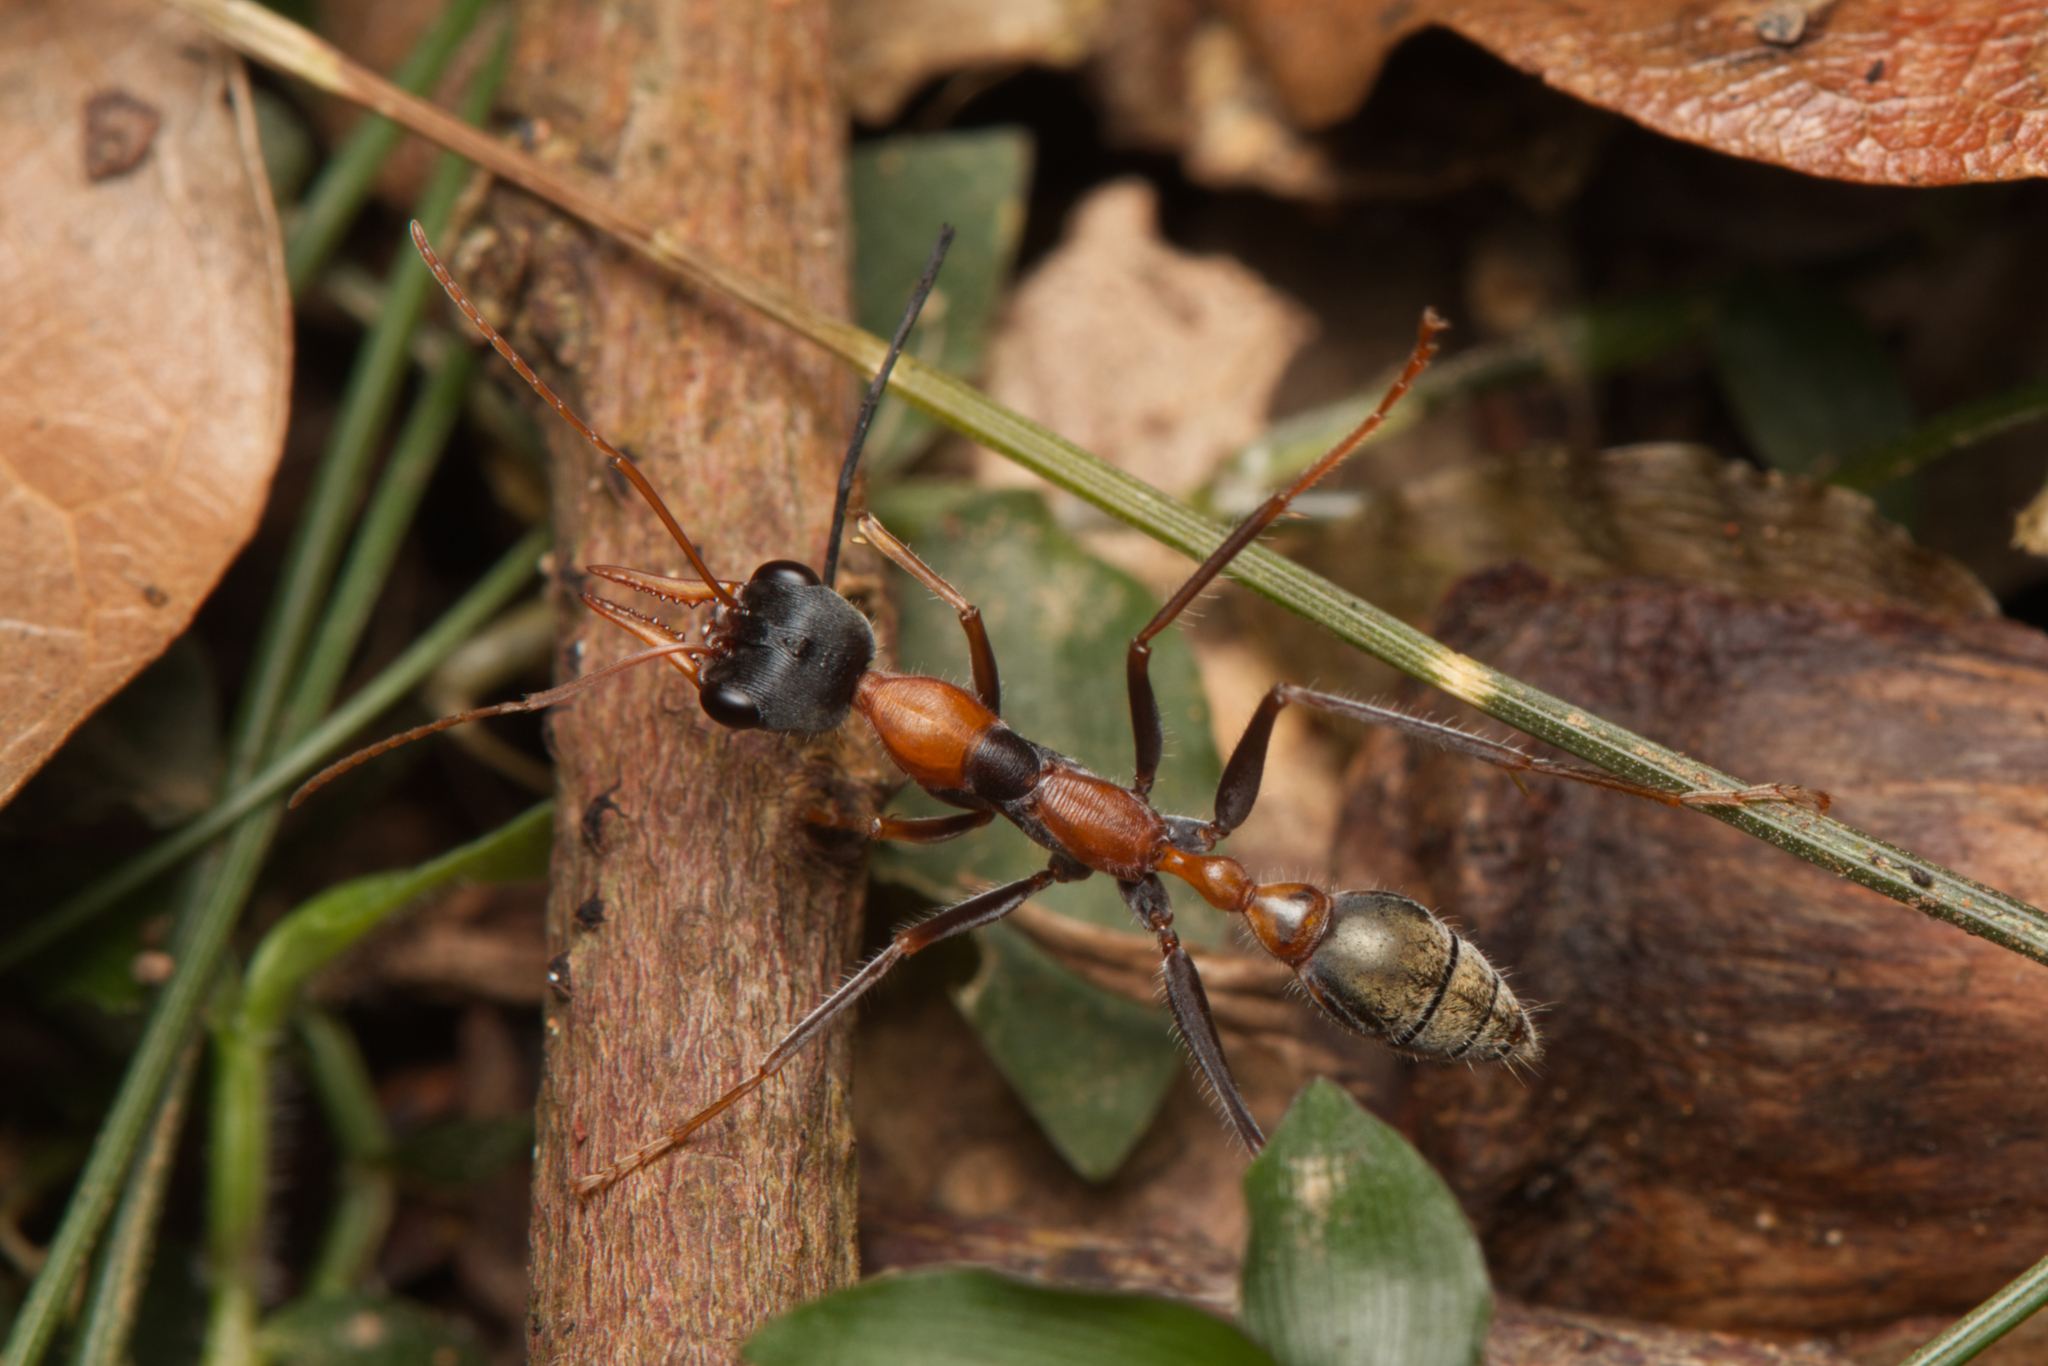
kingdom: Animalia
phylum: Arthropoda
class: Insecta
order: Hymenoptera
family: Formicidae
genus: Myrmecia
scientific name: Myrmecia nigrocincta
